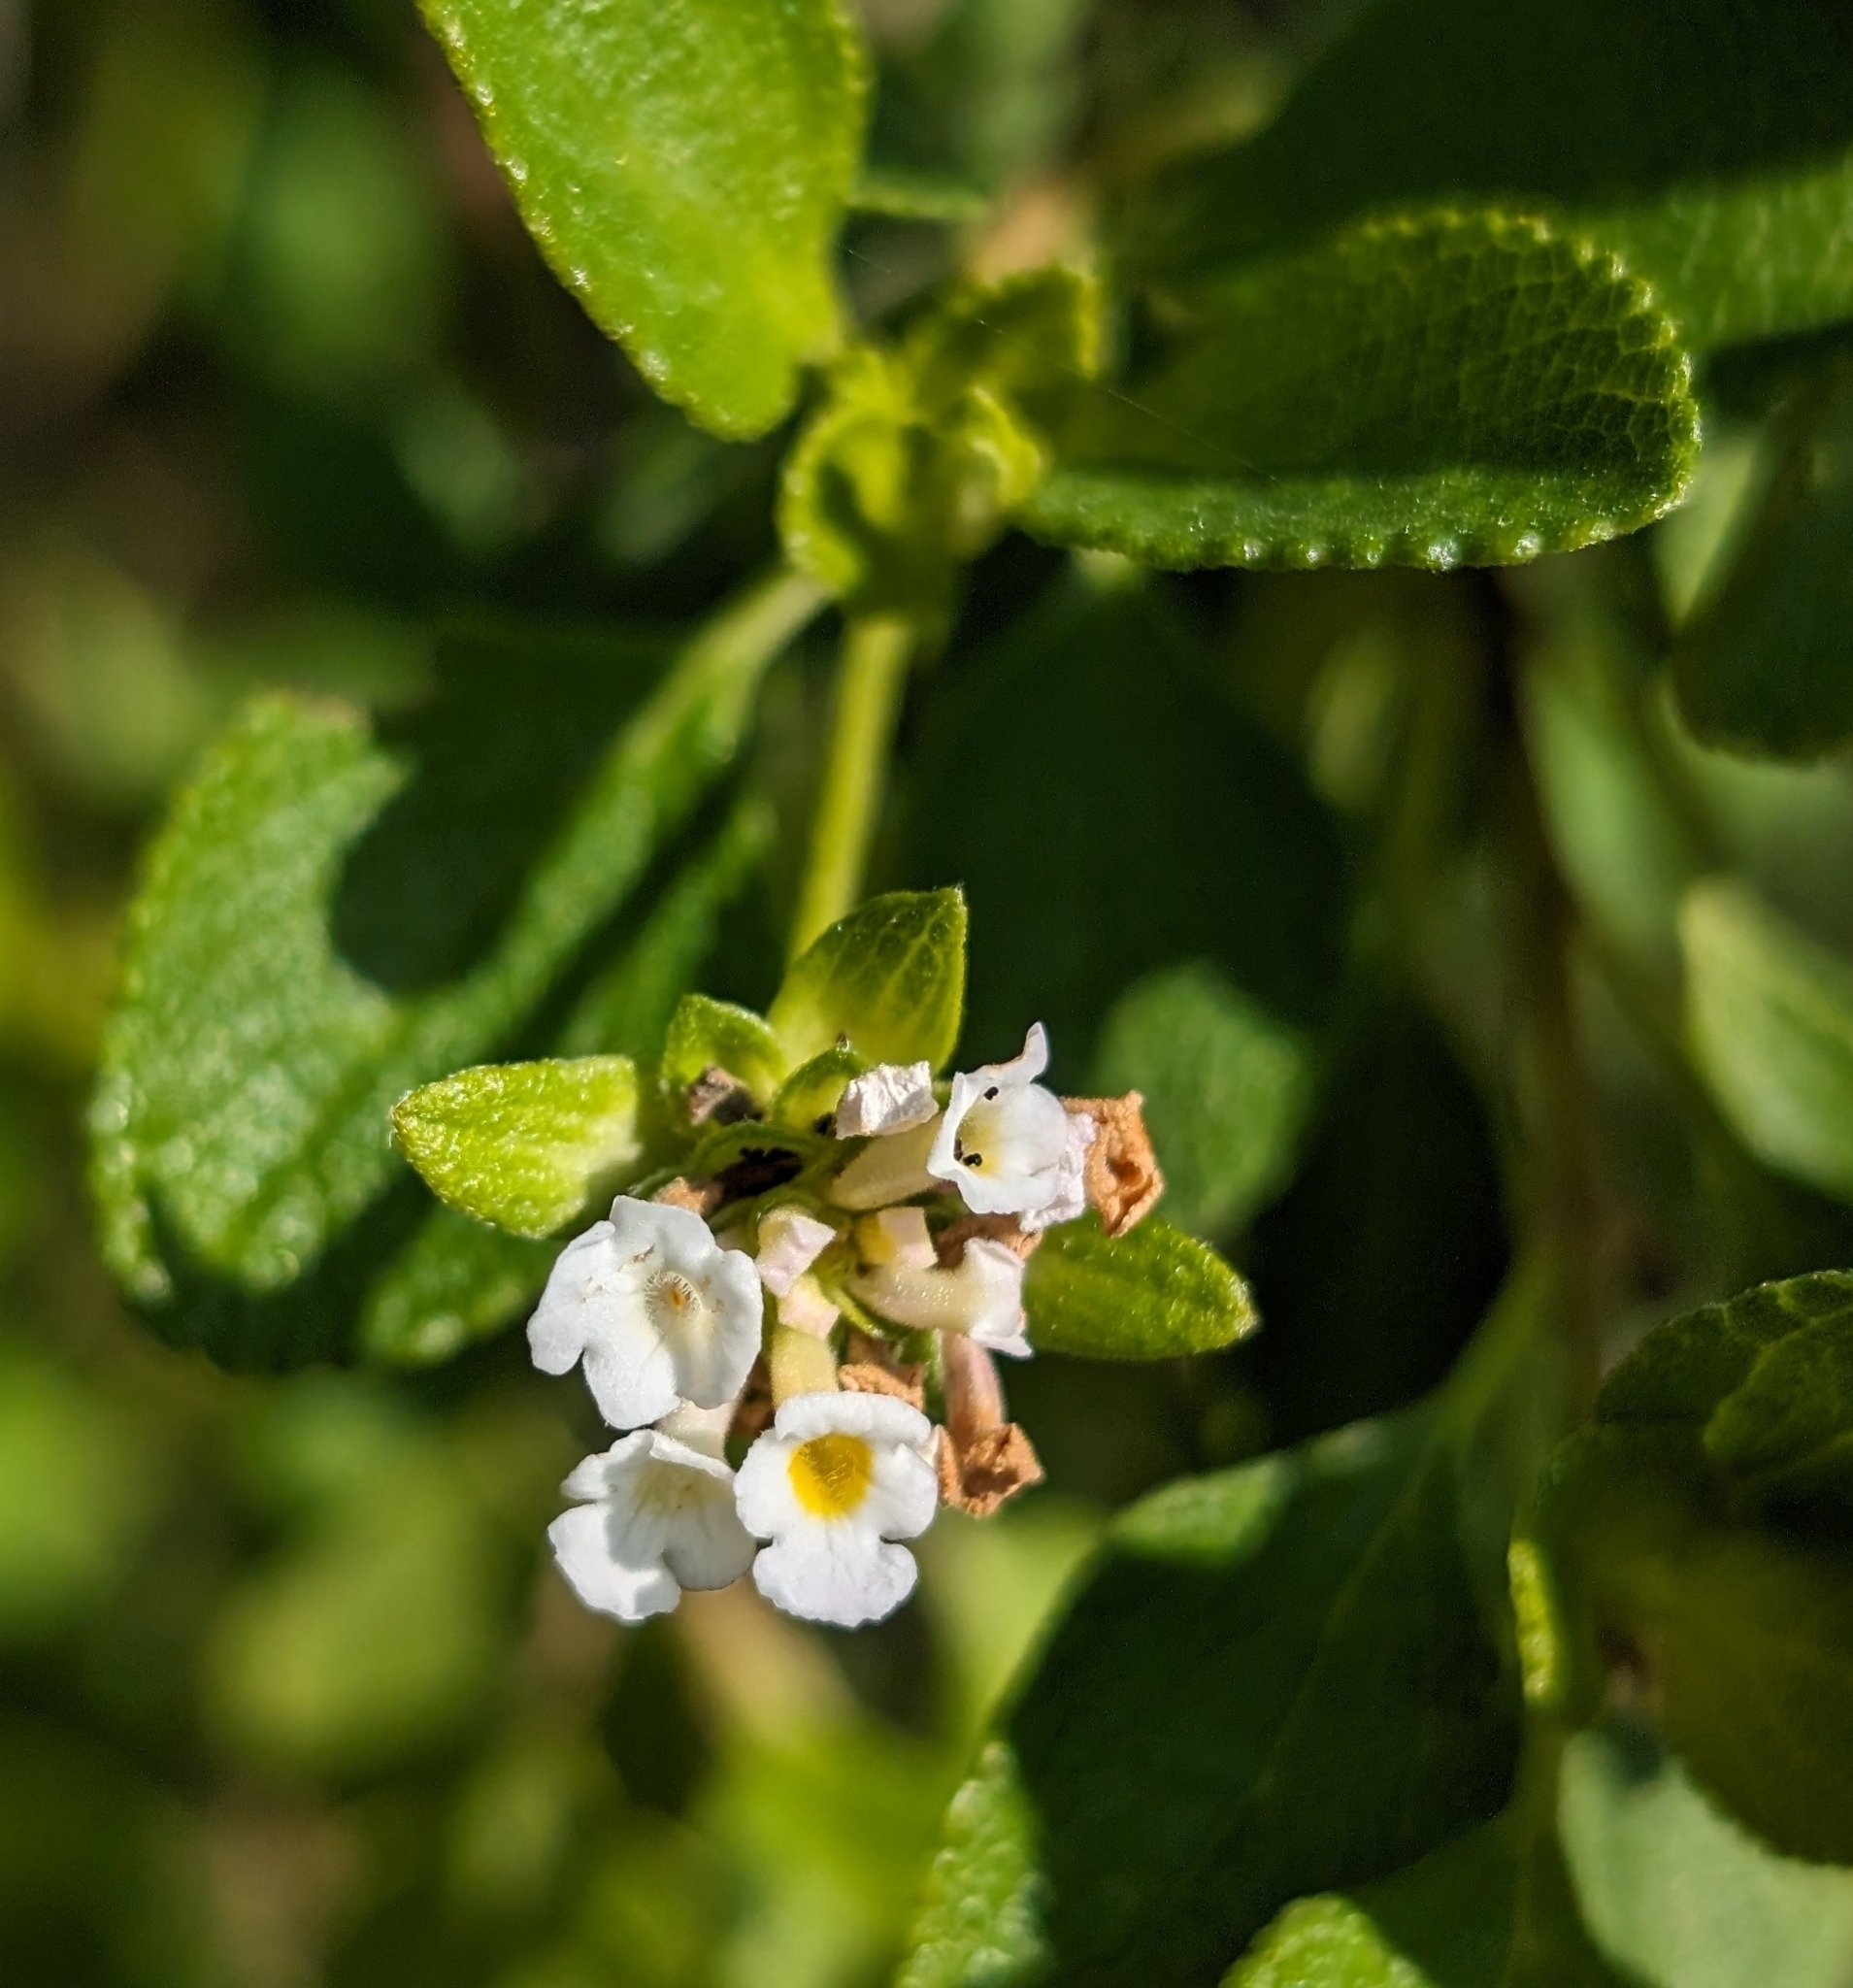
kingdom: Plantae
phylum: Tracheophyta
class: Magnoliopsida
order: Lamiales
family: Verbenaceae
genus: Lantana
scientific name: Lantana involucrata
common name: Black sage
